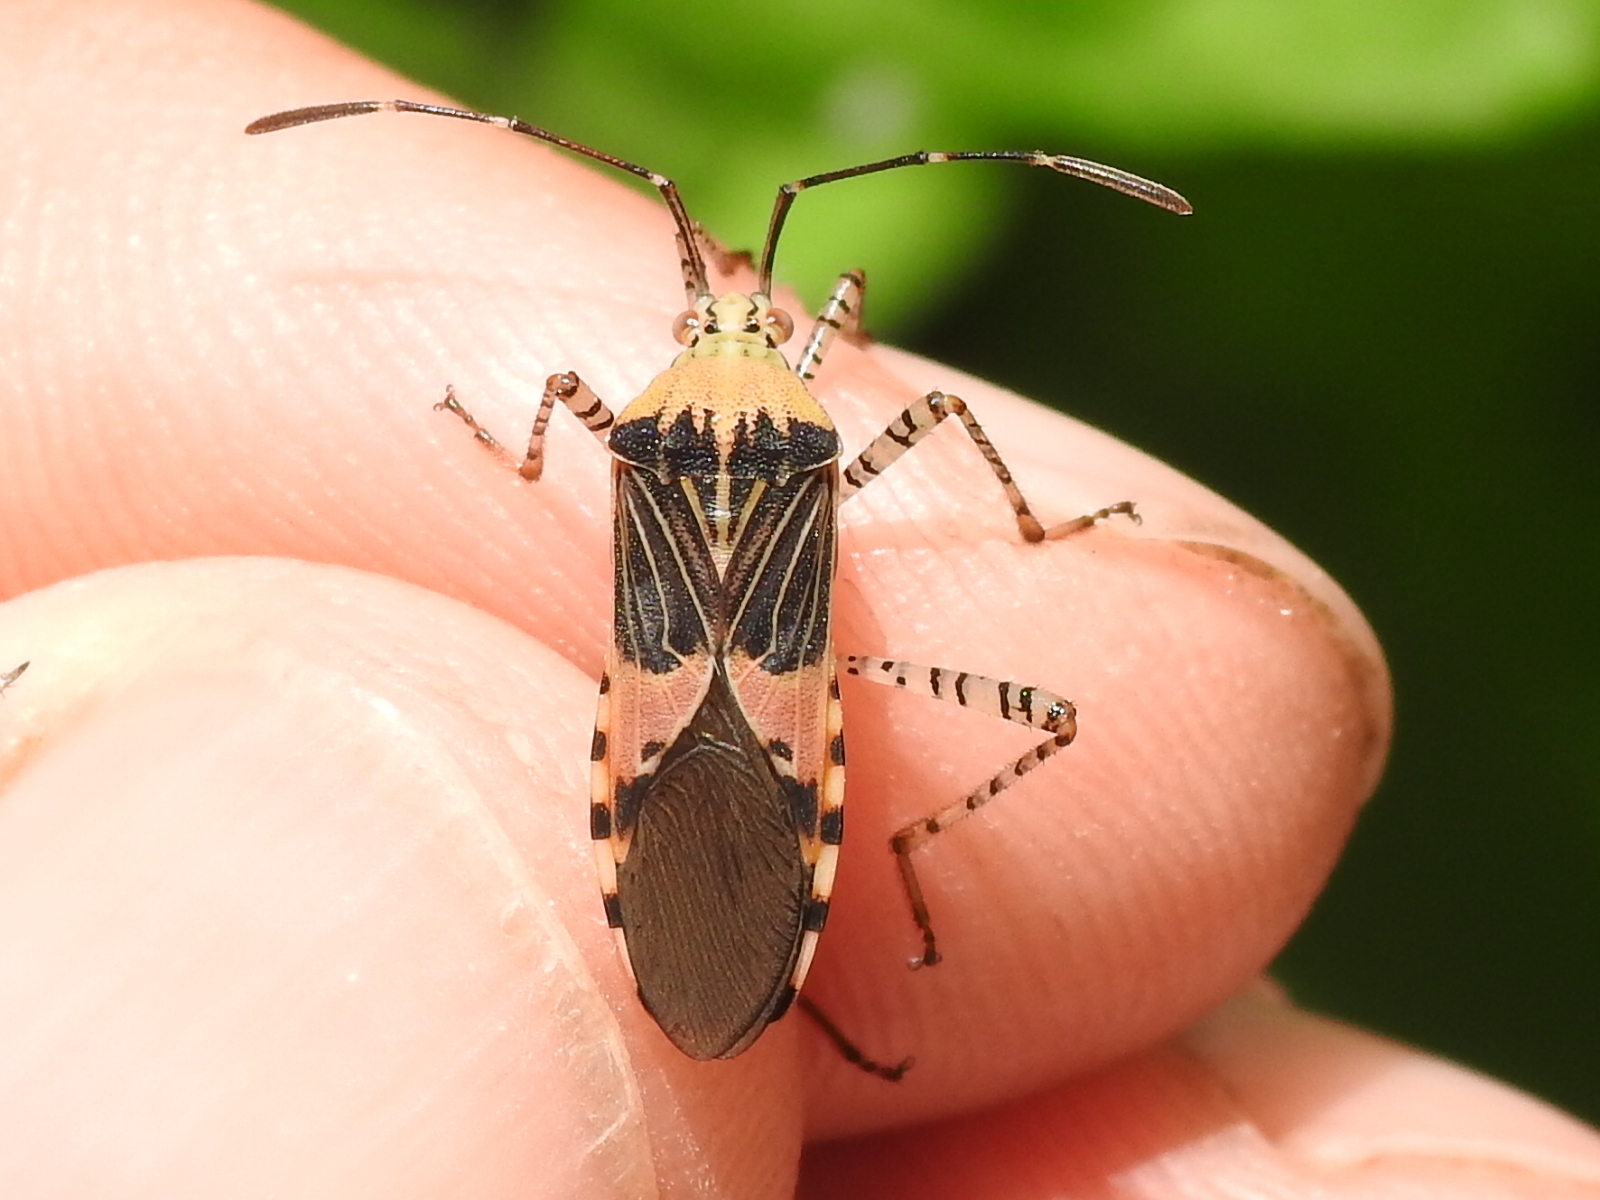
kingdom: Animalia
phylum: Arthropoda
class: Insecta
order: Hemiptera
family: Coreidae
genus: Hypselonotus
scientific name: Hypselonotus punctiventris
